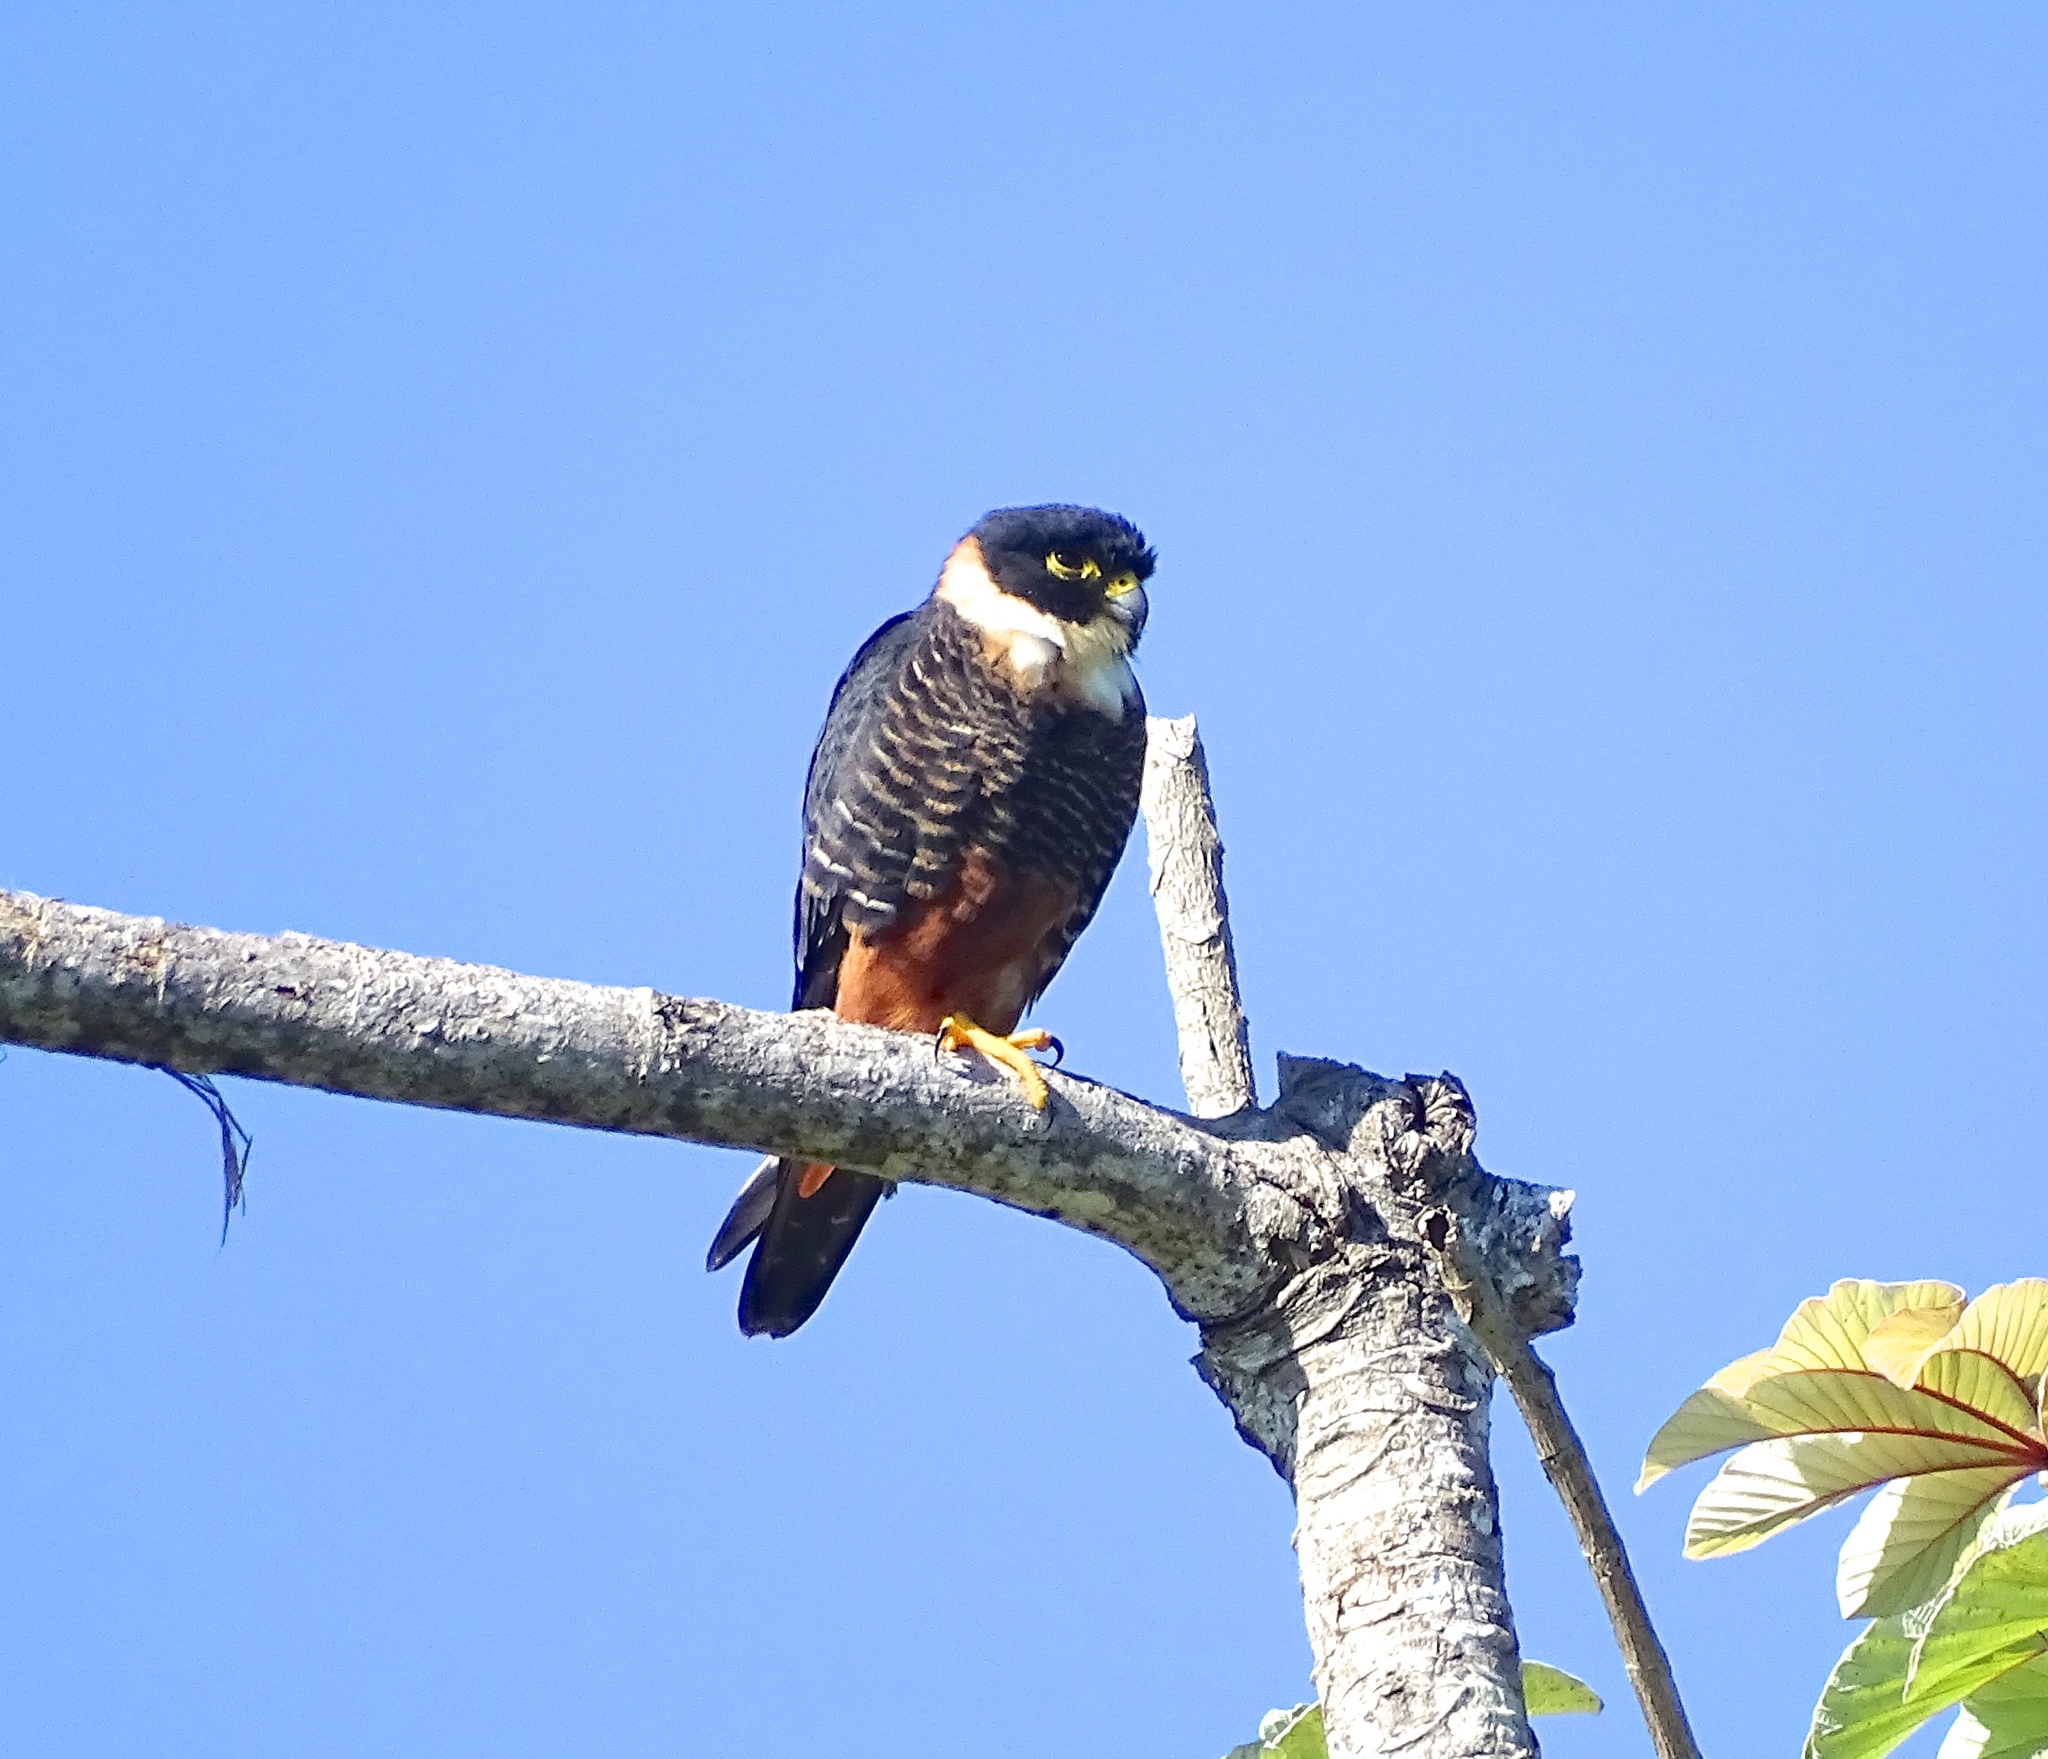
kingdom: Animalia
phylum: Chordata
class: Aves
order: Falconiformes
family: Falconidae
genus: Falco
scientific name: Falco rufigularis
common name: Bat falcon
